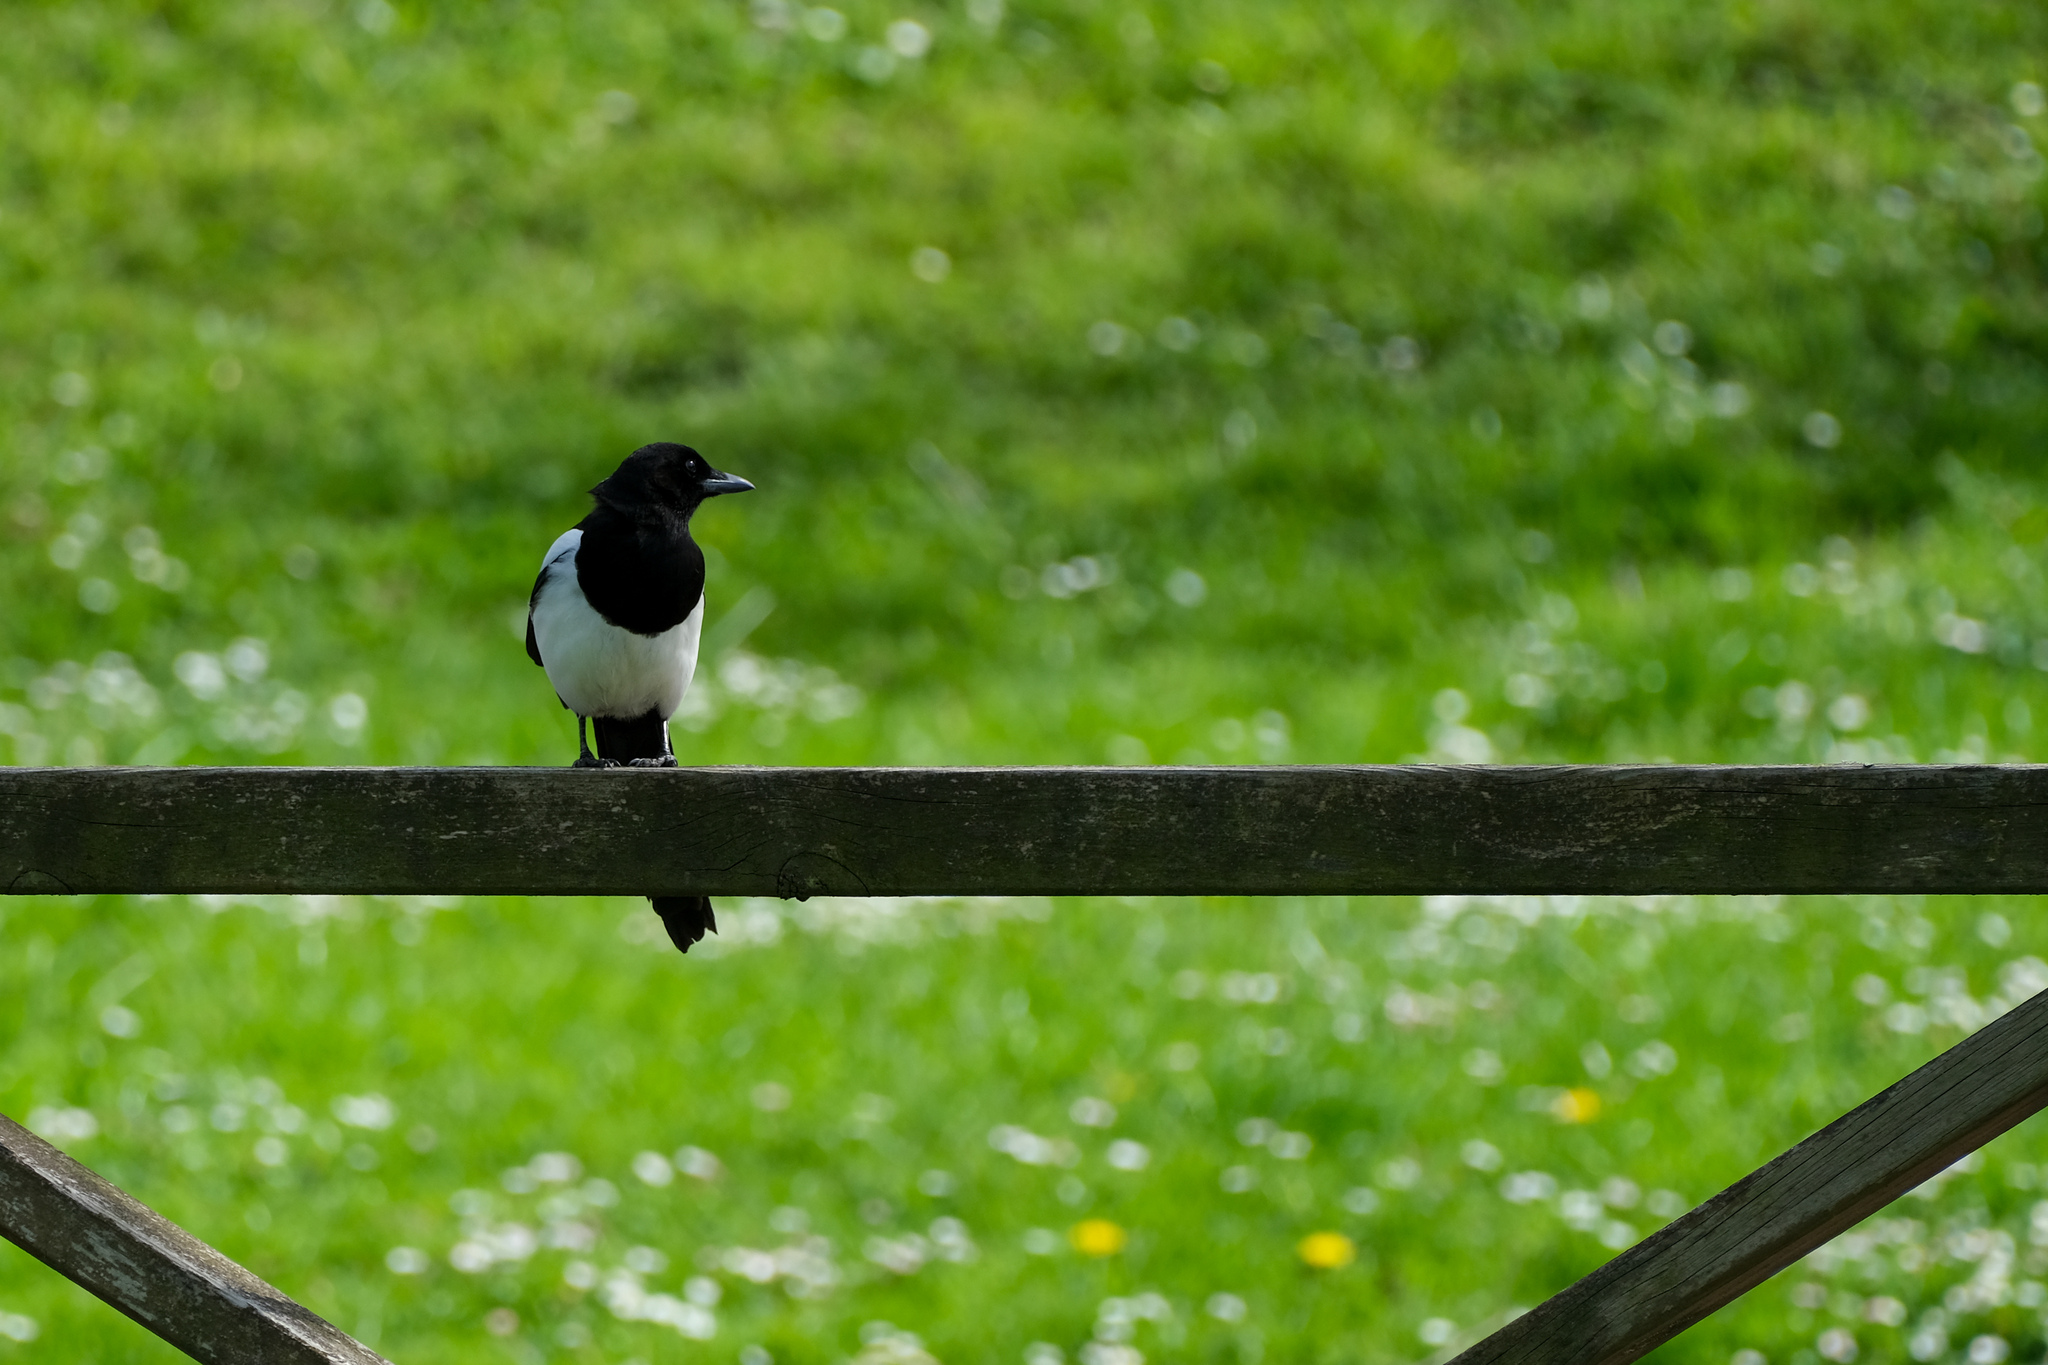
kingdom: Animalia
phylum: Chordata
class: Aves
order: Passeriformes
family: Corvidae
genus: Pica
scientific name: Pica pica
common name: Eurasian magpie
